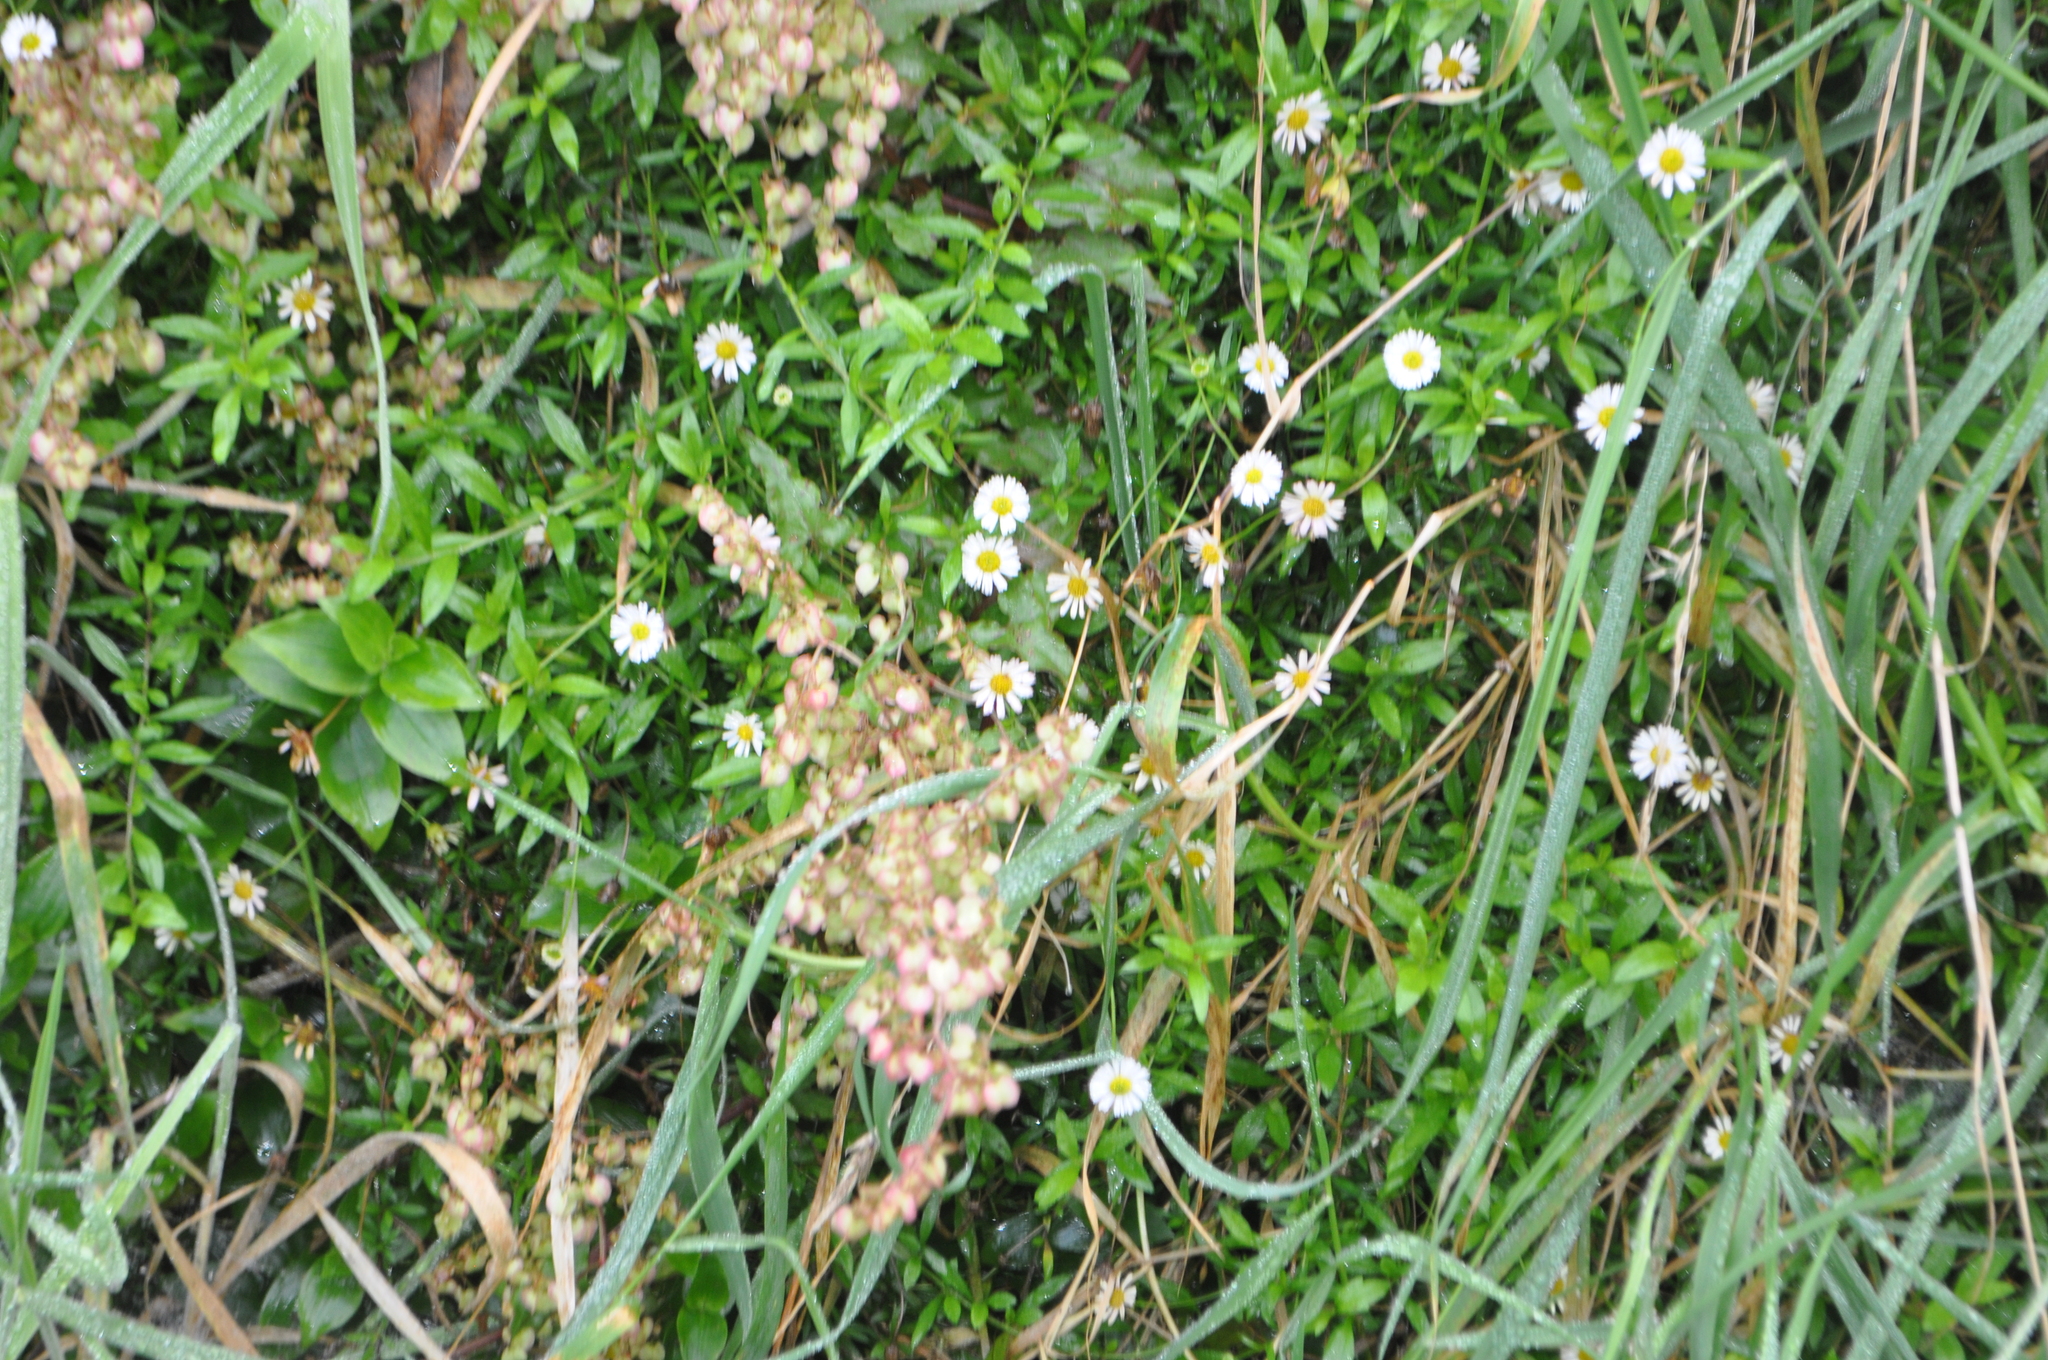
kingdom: Plantae
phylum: Tracheophyta
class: Magnoliopsida
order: Caryophyllales
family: Polygonaceae
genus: Rumex
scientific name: Rumex sagittatus
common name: Climbing dock
